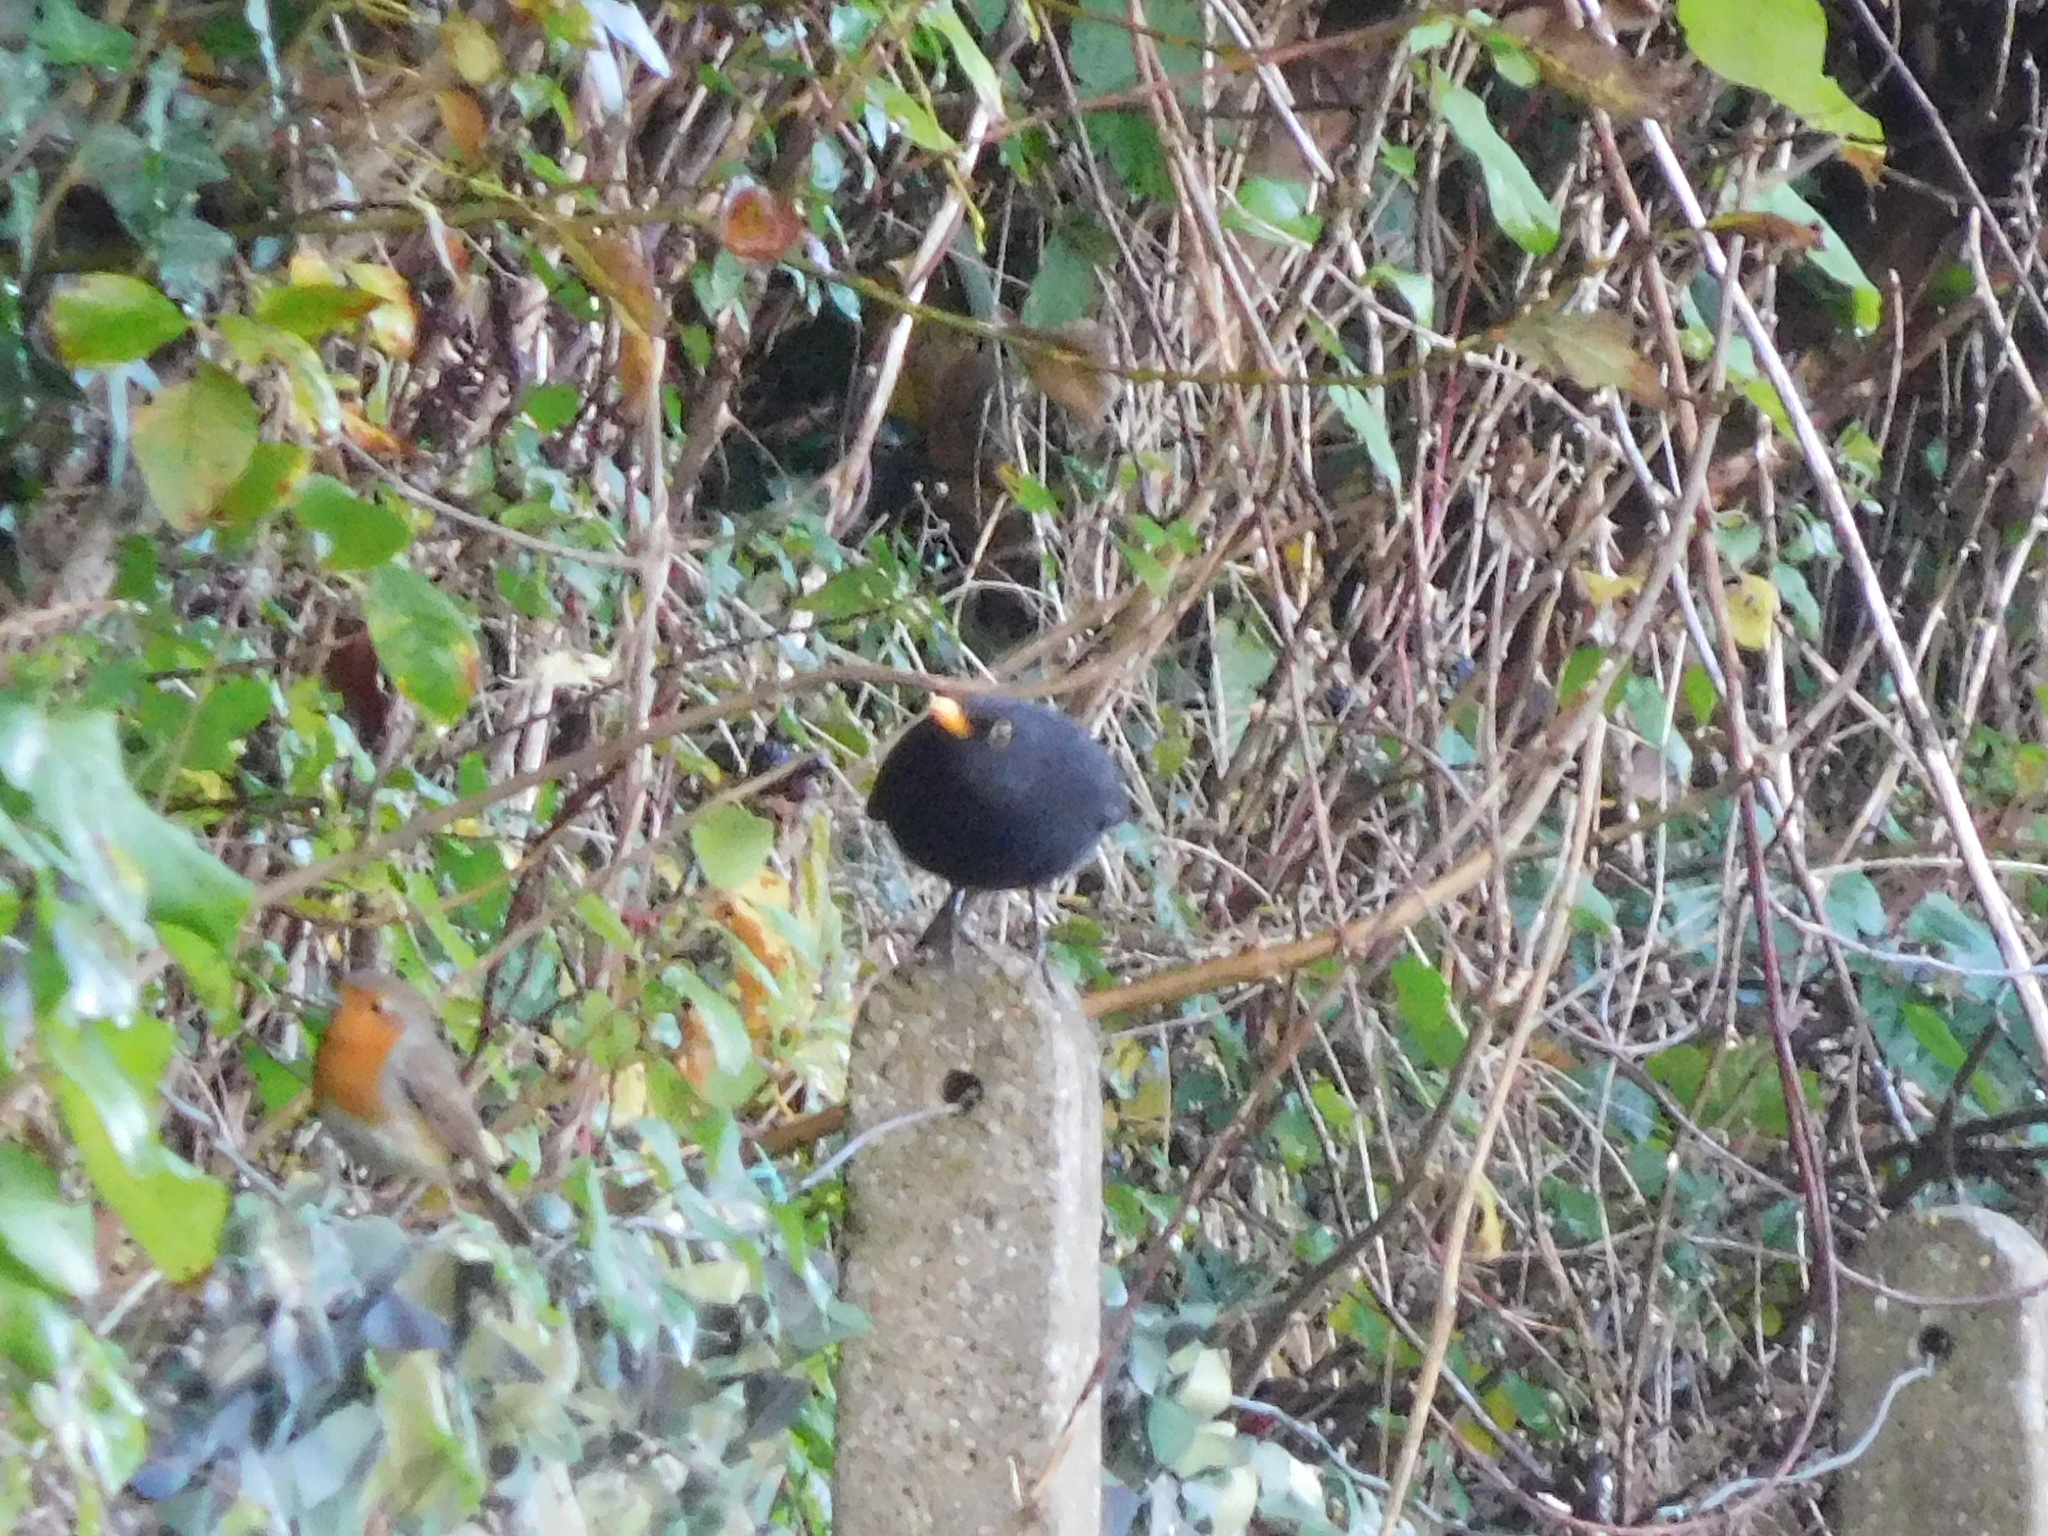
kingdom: Animalia
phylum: Chordata
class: Aves
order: Passeriformes
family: Turdidae
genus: Turdus
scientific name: Turdus merula
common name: Common blackbird
